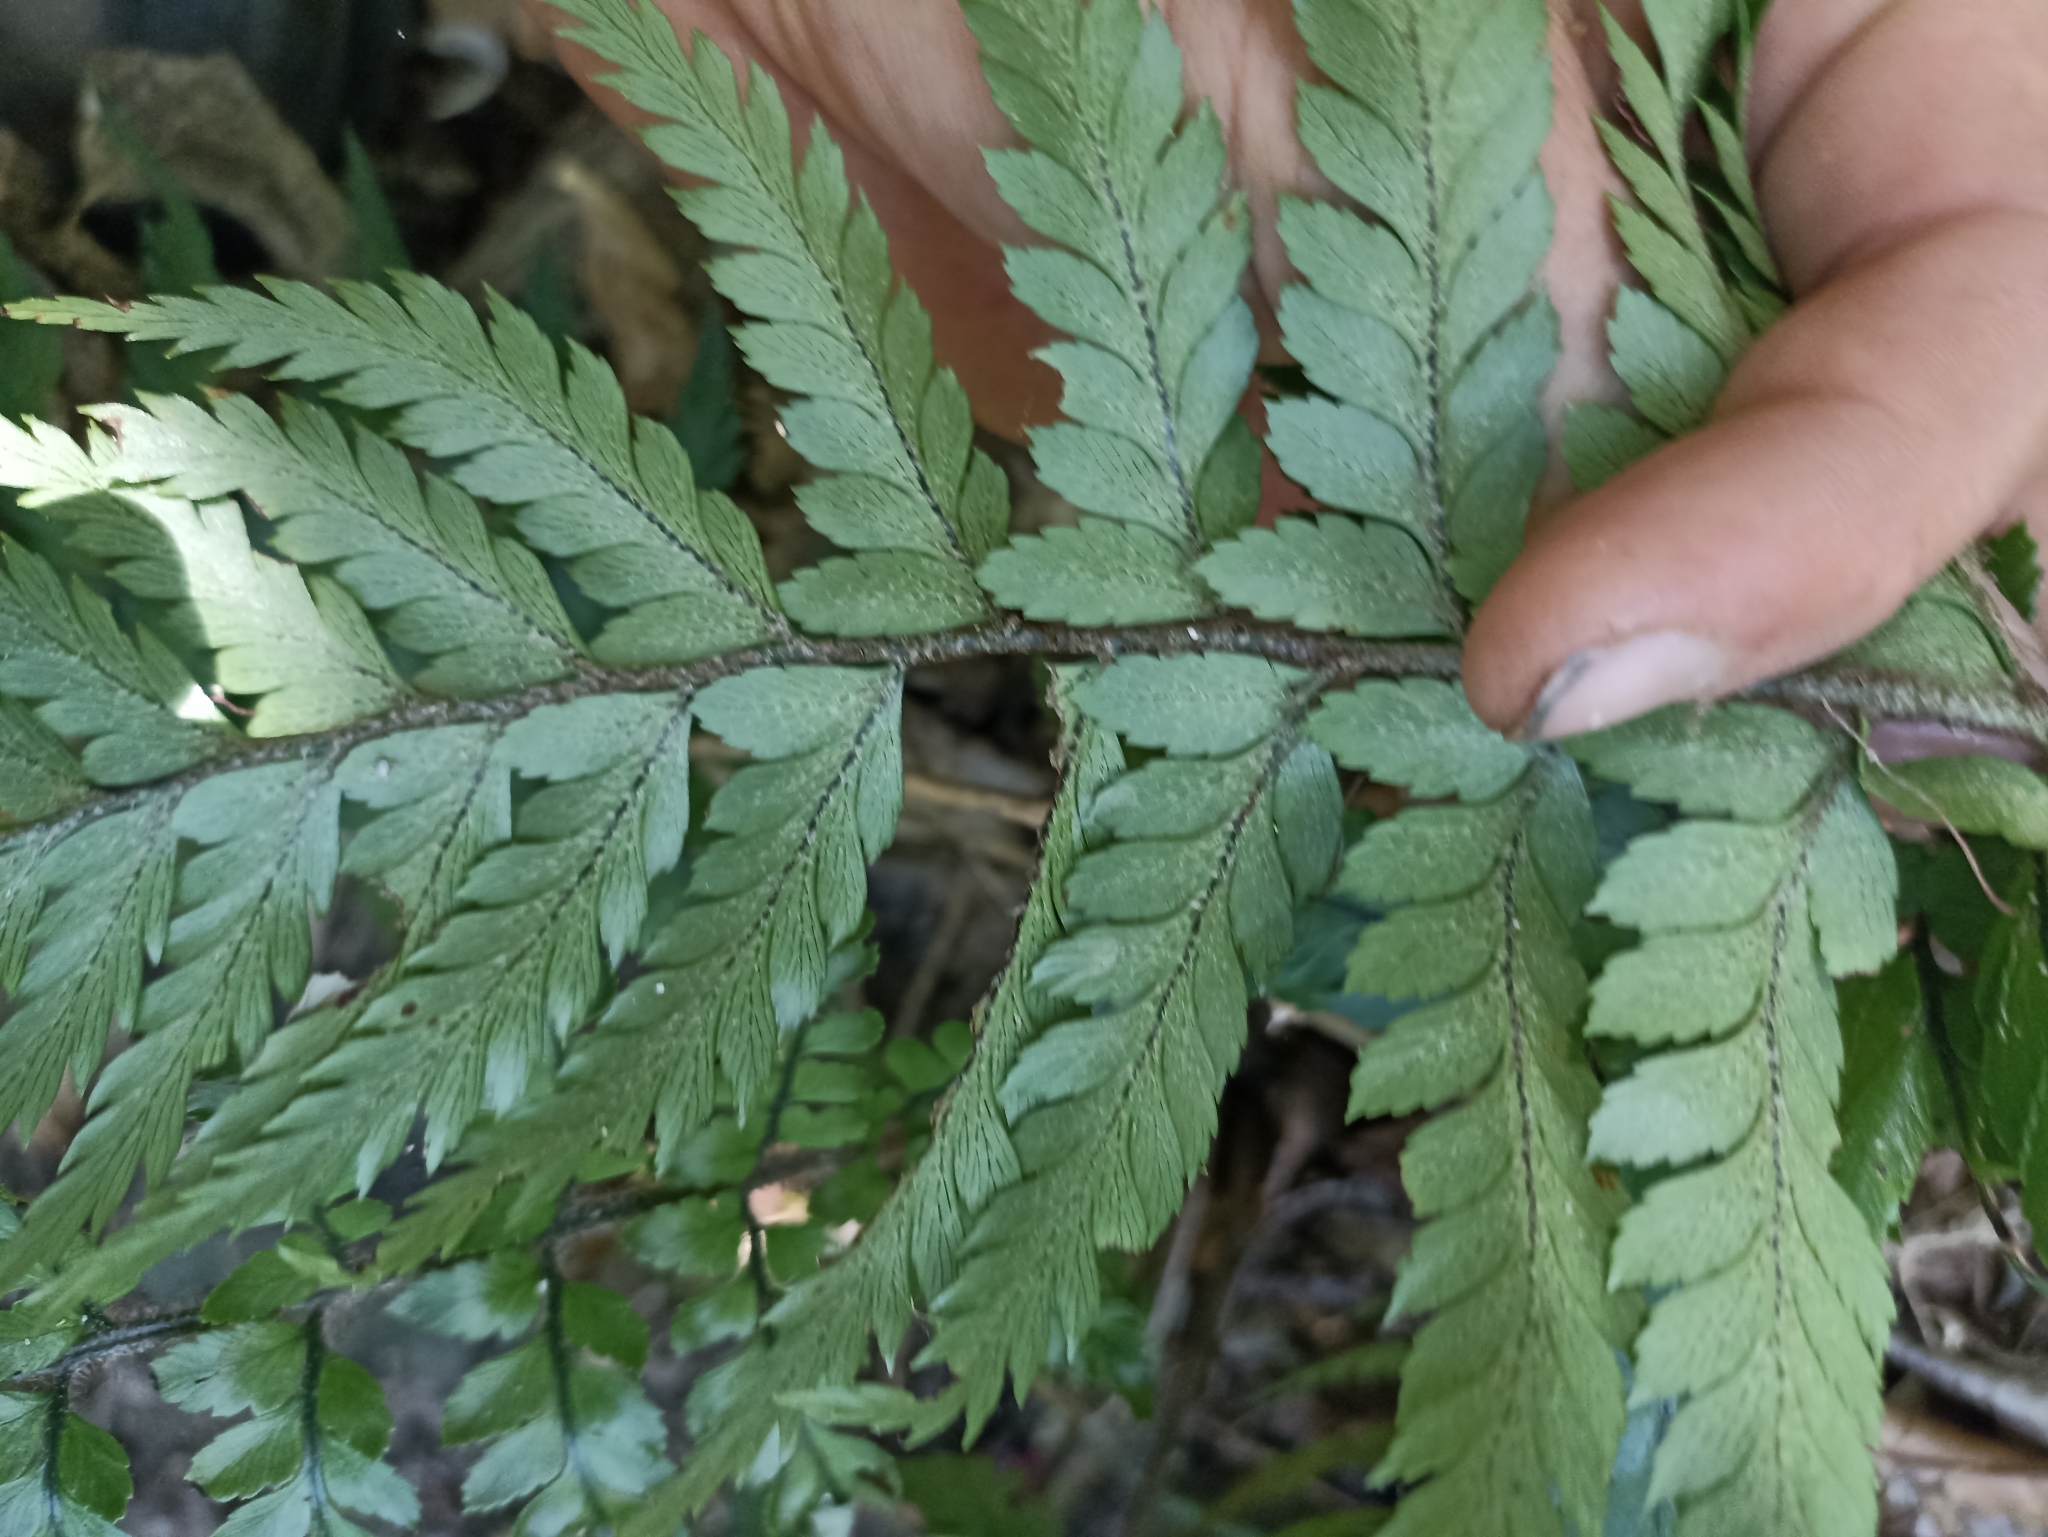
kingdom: Plantae
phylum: Tracheophyta
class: Polypodiopsida
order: Polypodiales
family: Dryopteridaceae
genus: Polystichum
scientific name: Polystichum wawranum
